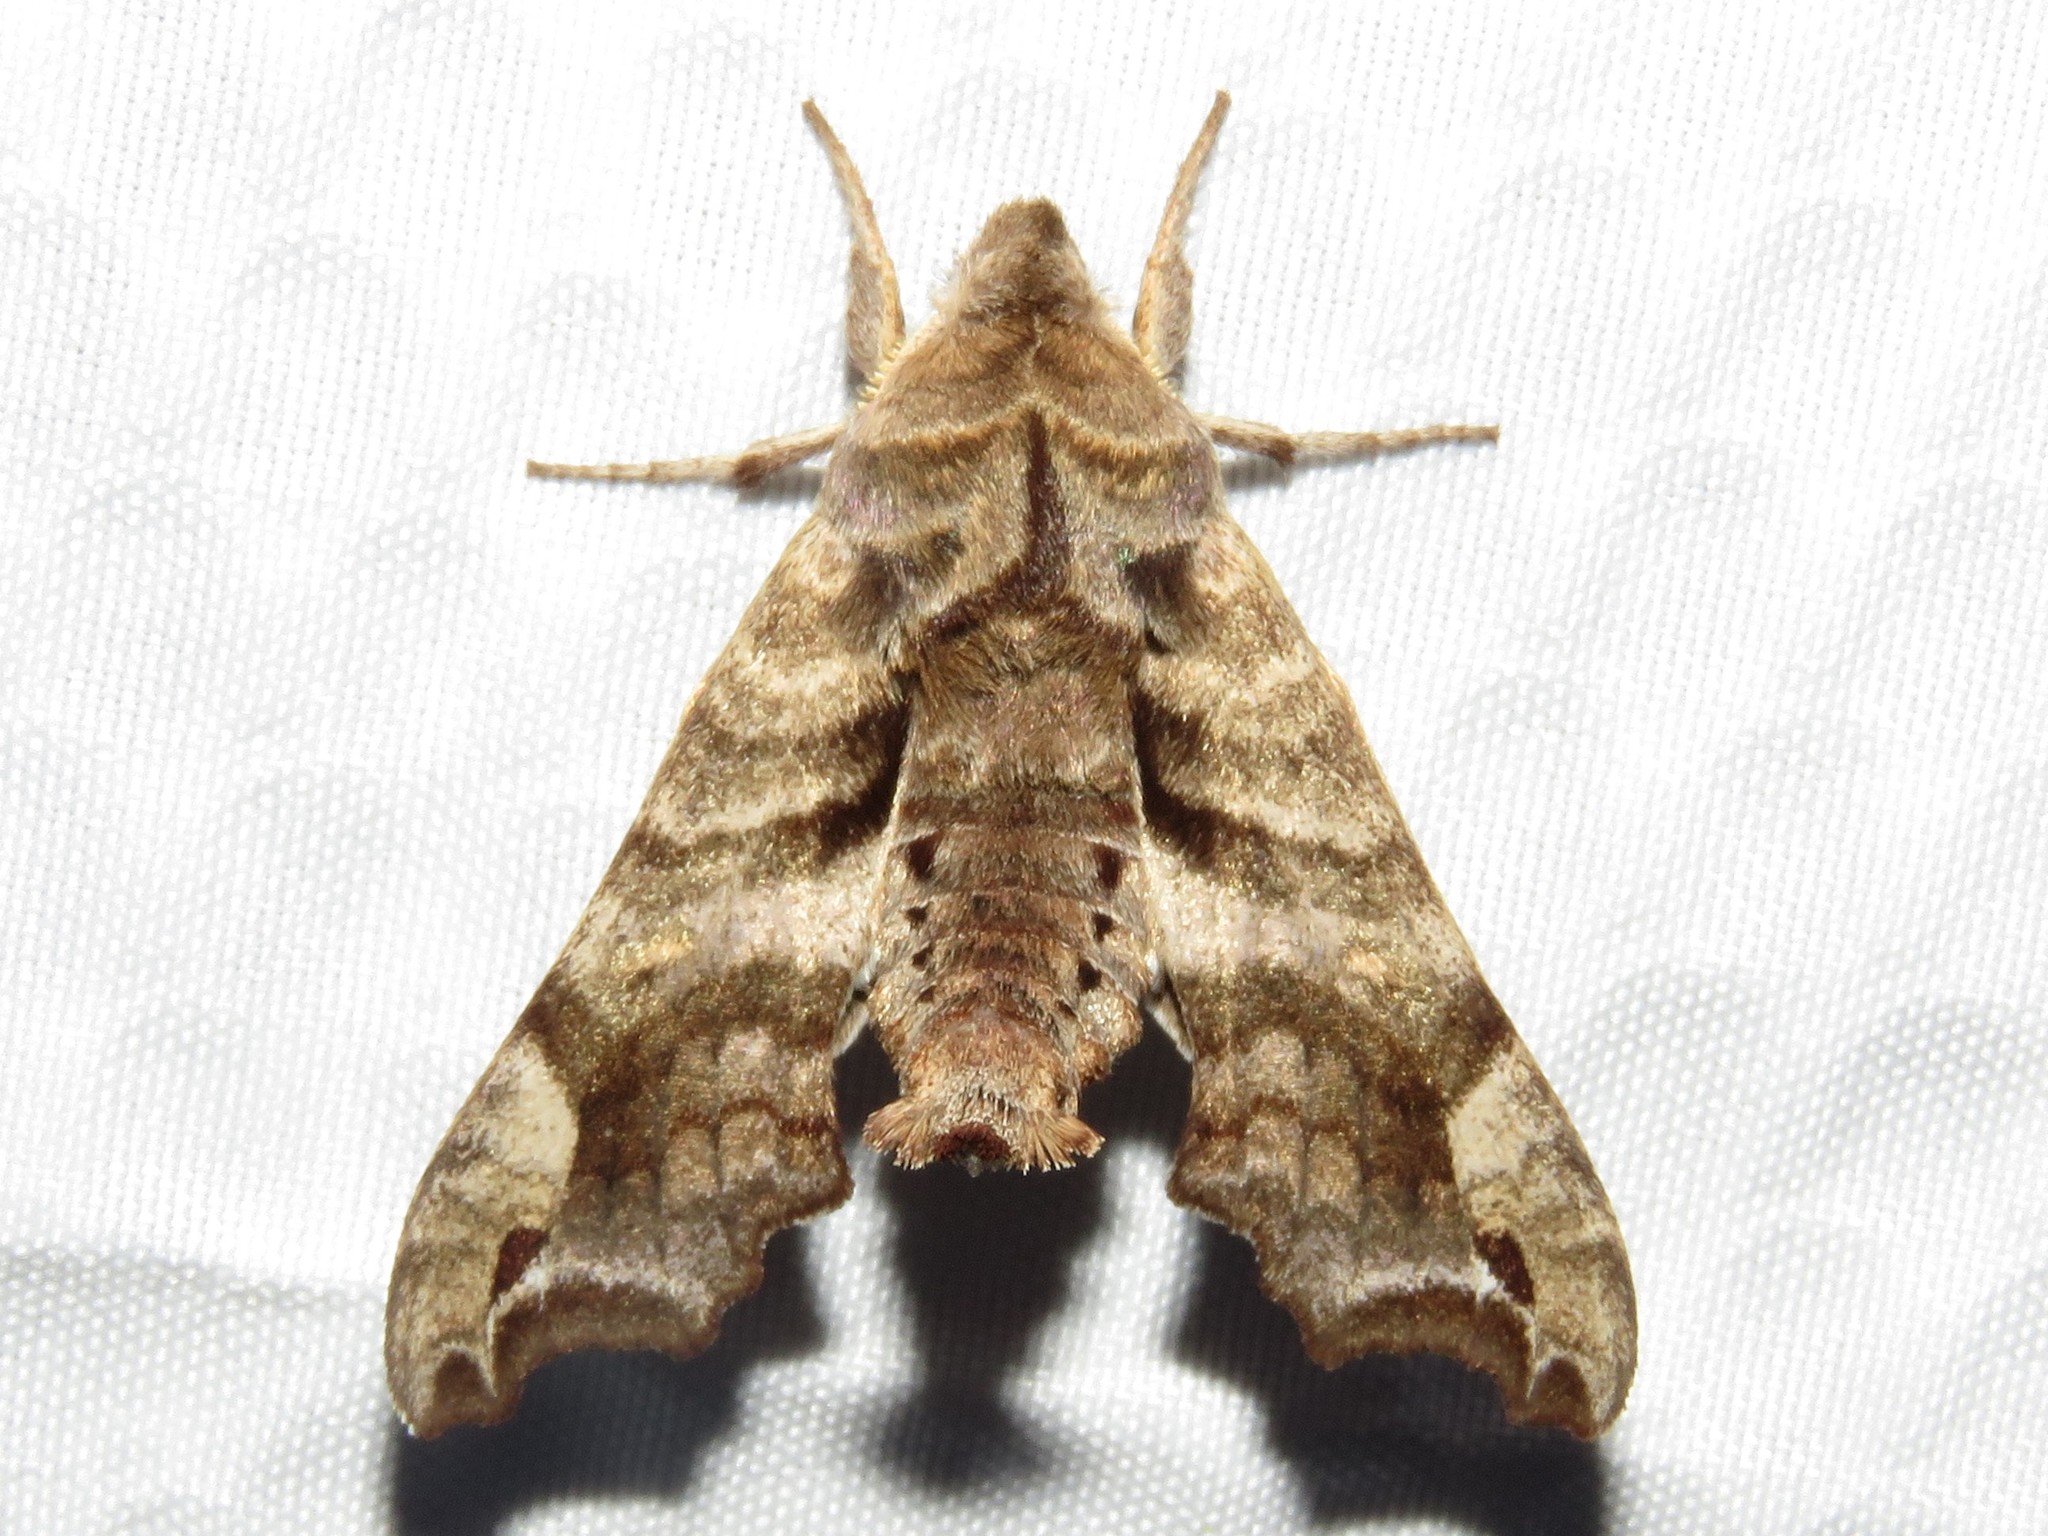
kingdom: Animalia
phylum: Arthropoda
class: Insecta
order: Lepidoptera
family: Sphingidae
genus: Deidamia
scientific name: Deidamia inscriptum
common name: Lettered sphinx
